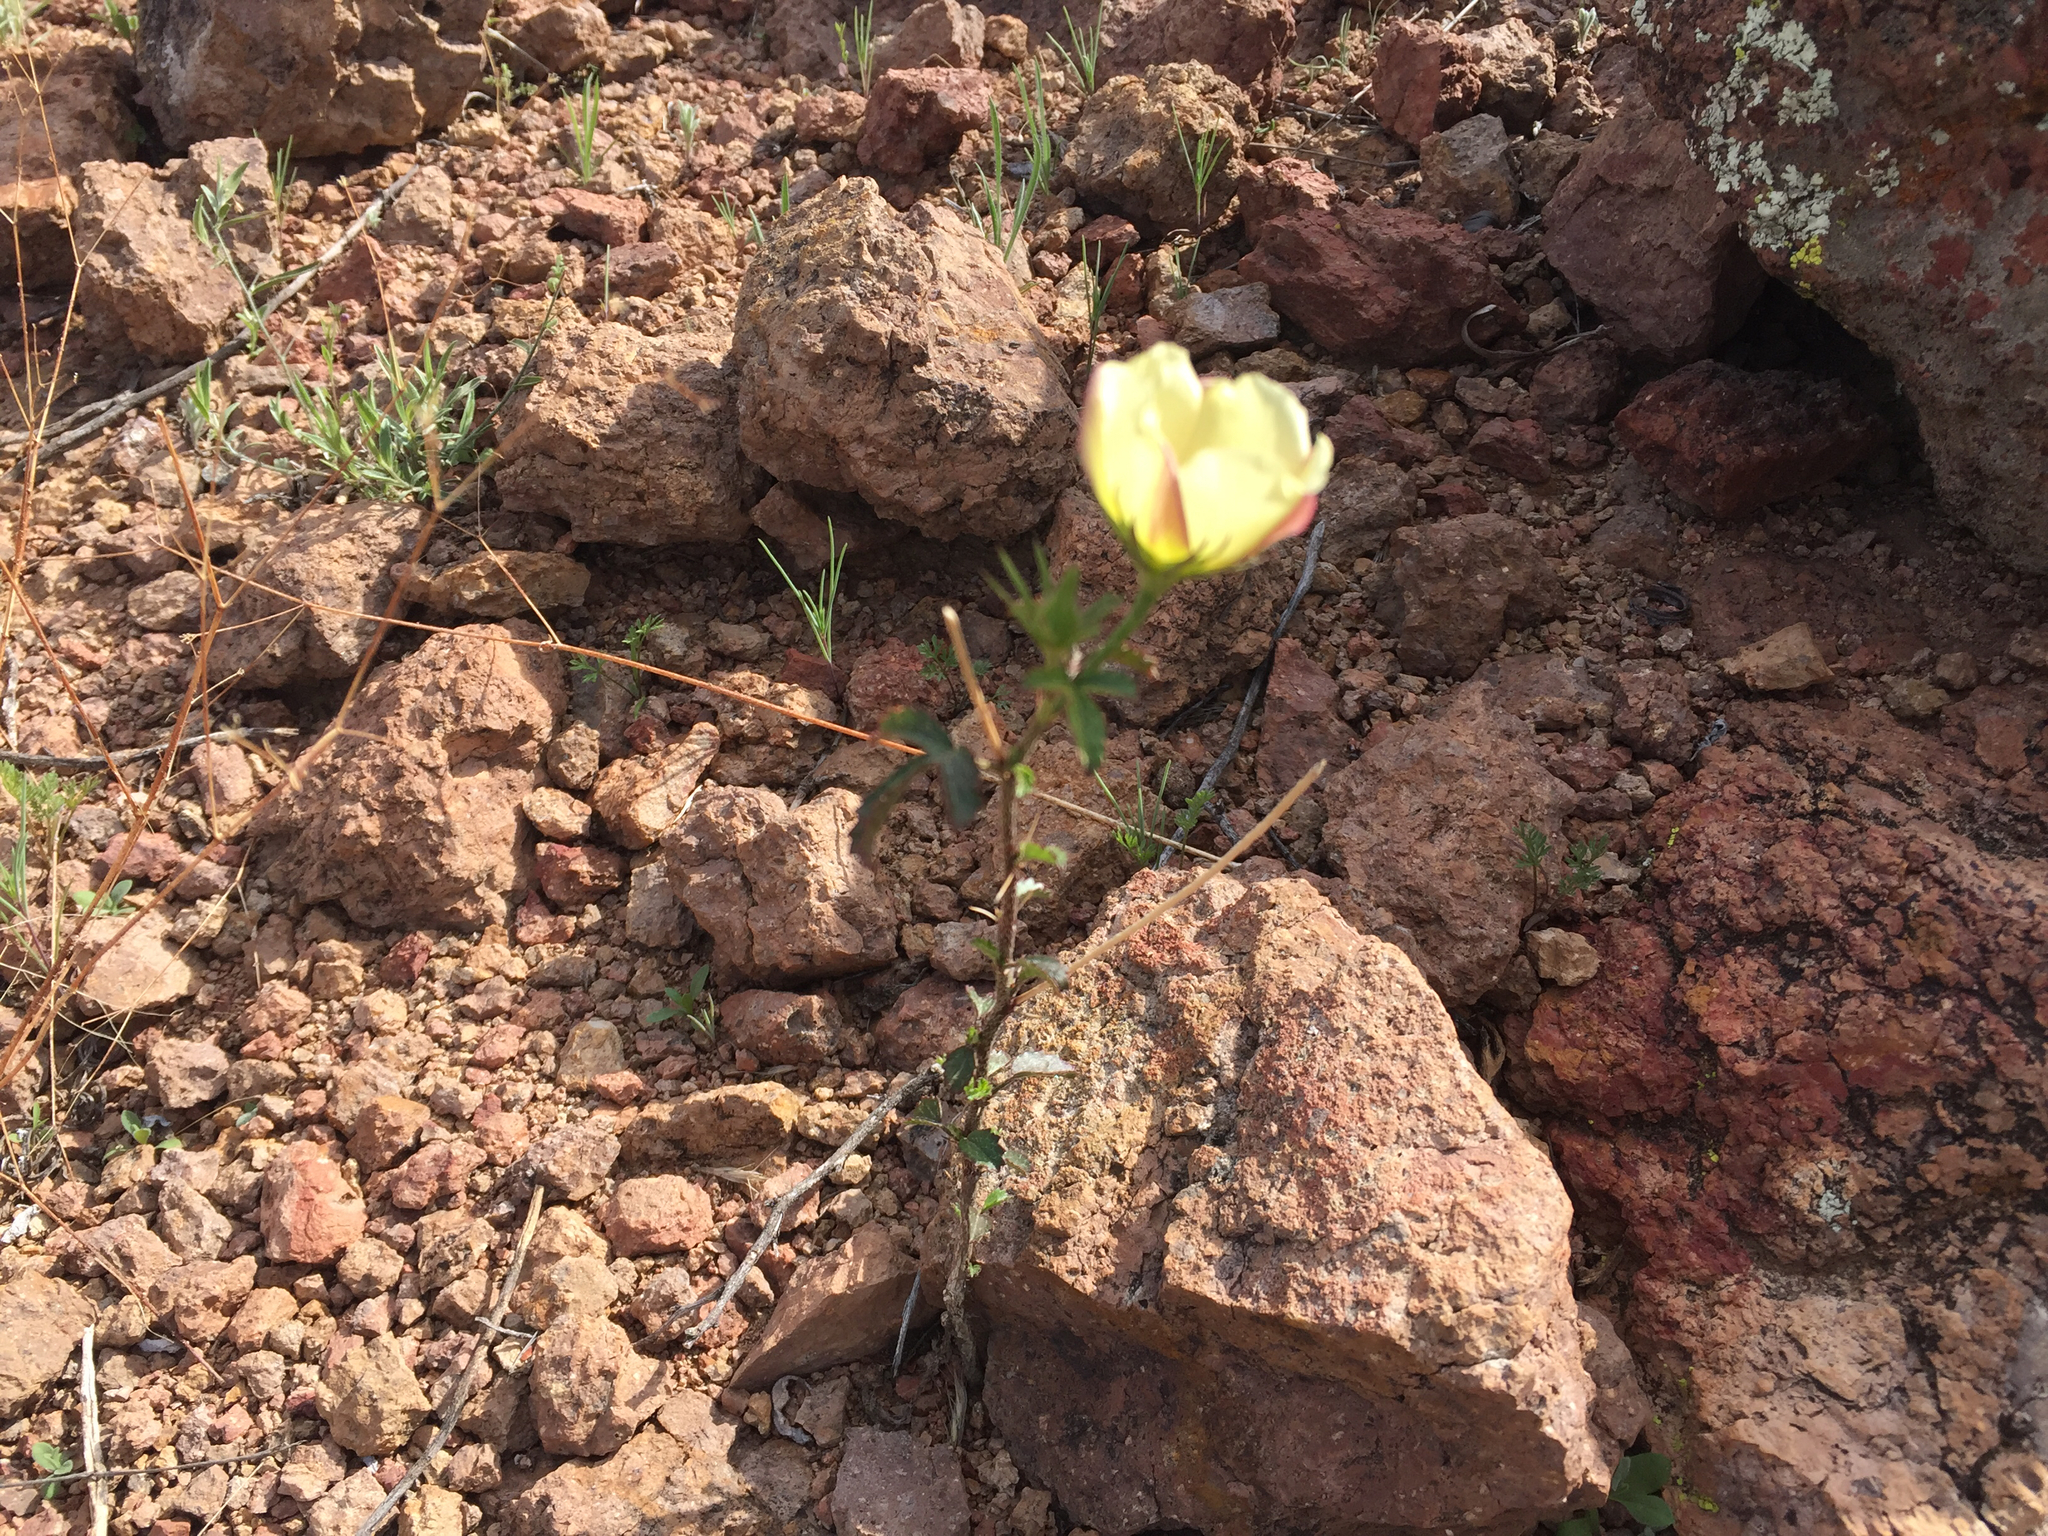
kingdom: Plantae
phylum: Tracheophyta
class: Magnoliopsida
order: Malvales
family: Malvaceae
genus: Hibiscus
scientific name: Hibiscus coulteri
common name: Desert rose-mallow
